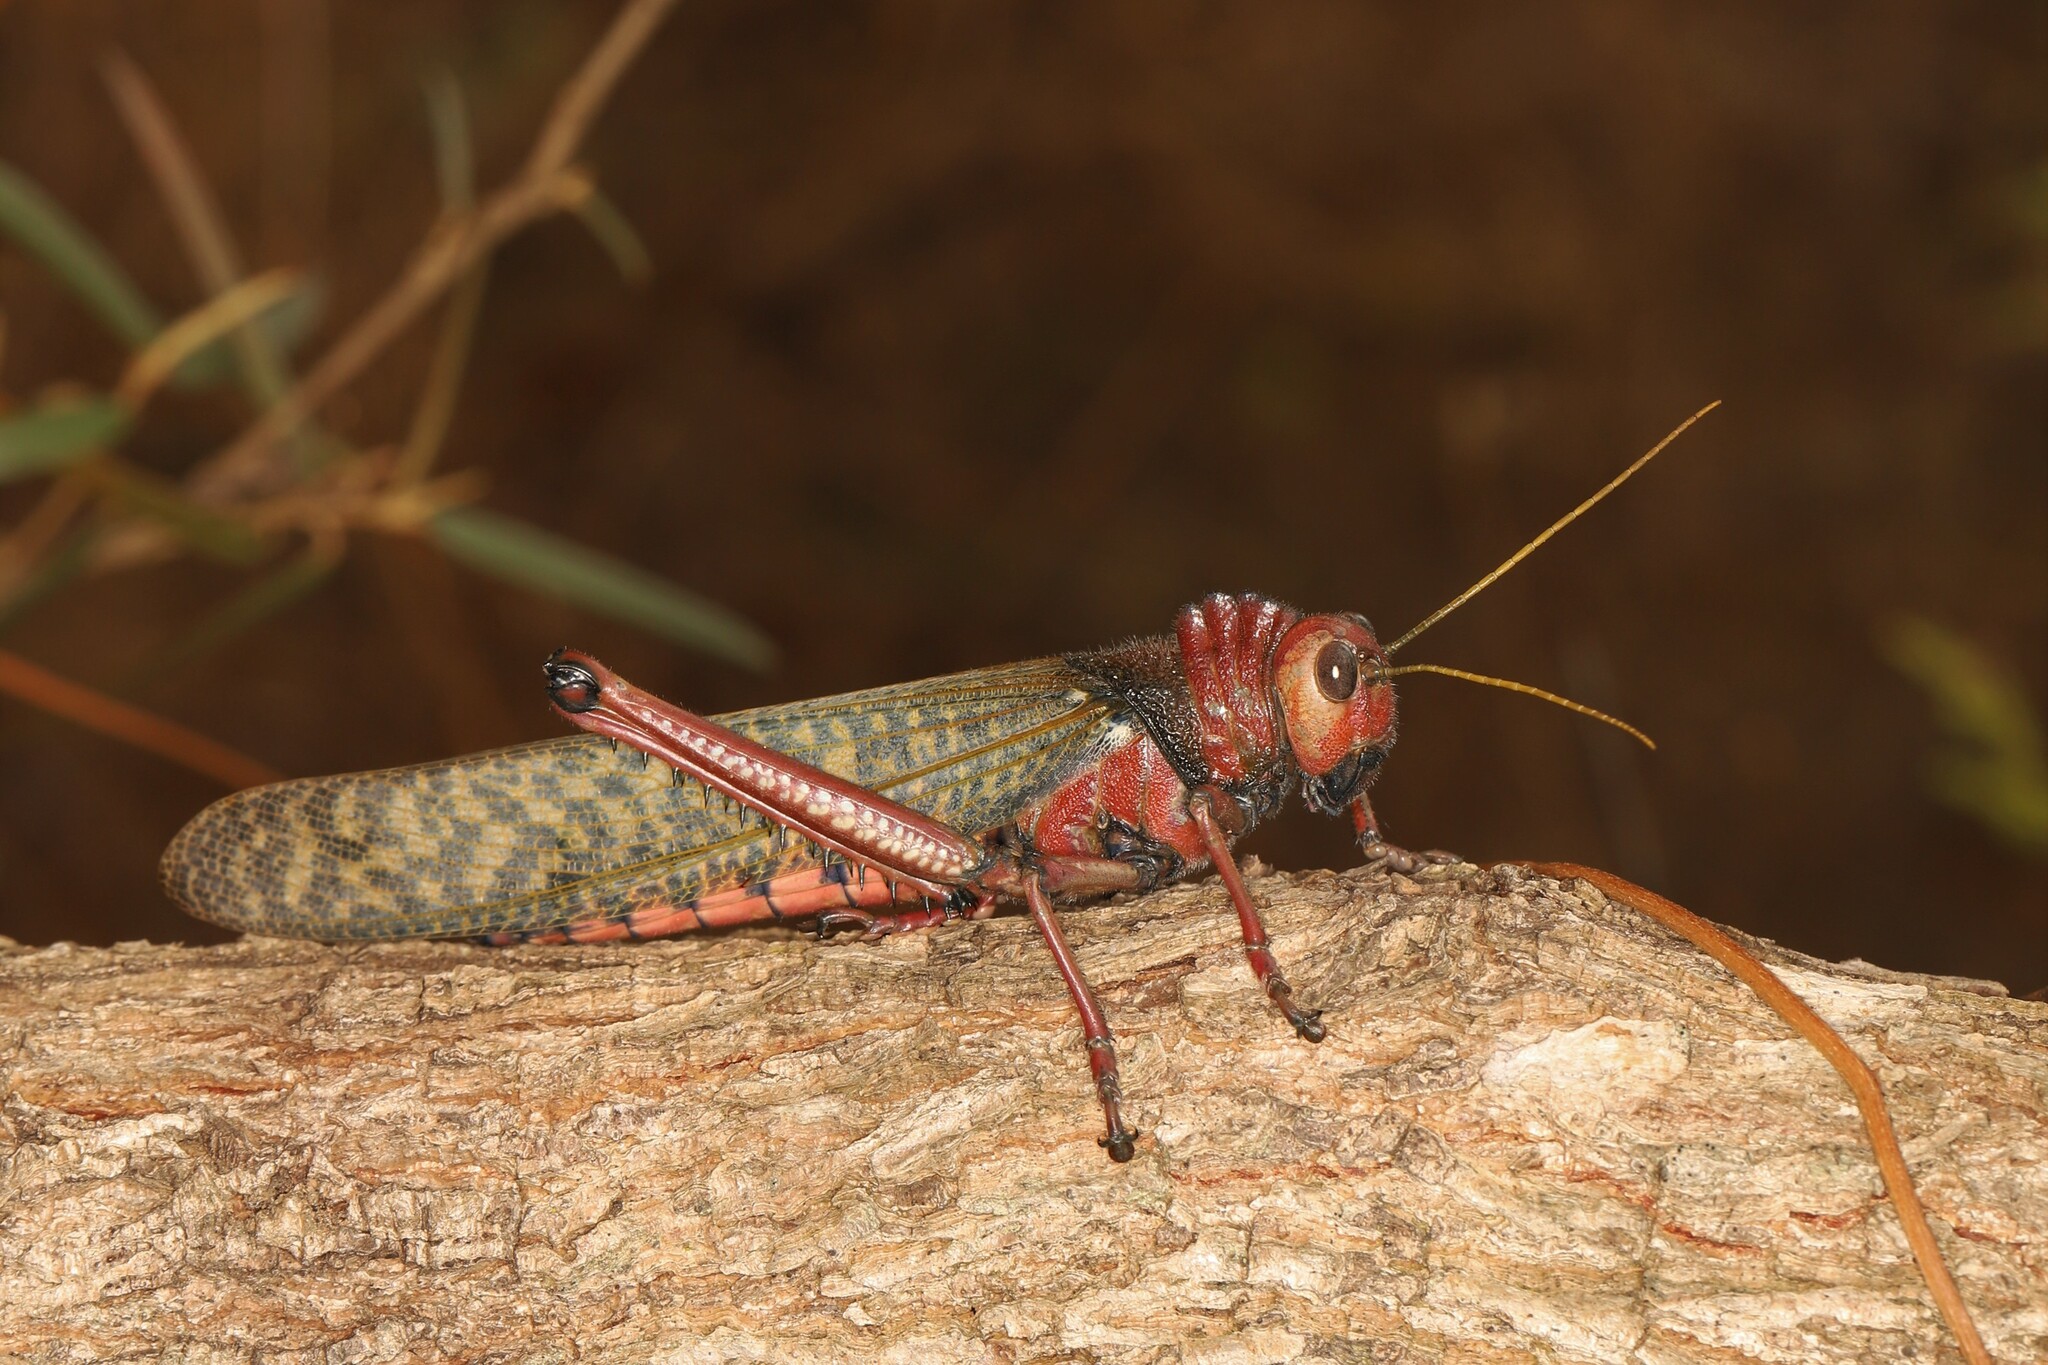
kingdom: Animalia
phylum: Arthropoda
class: Insecta
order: Orthoptera
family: Romaleidae
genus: Tropidacris
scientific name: Tropidacris collaris
